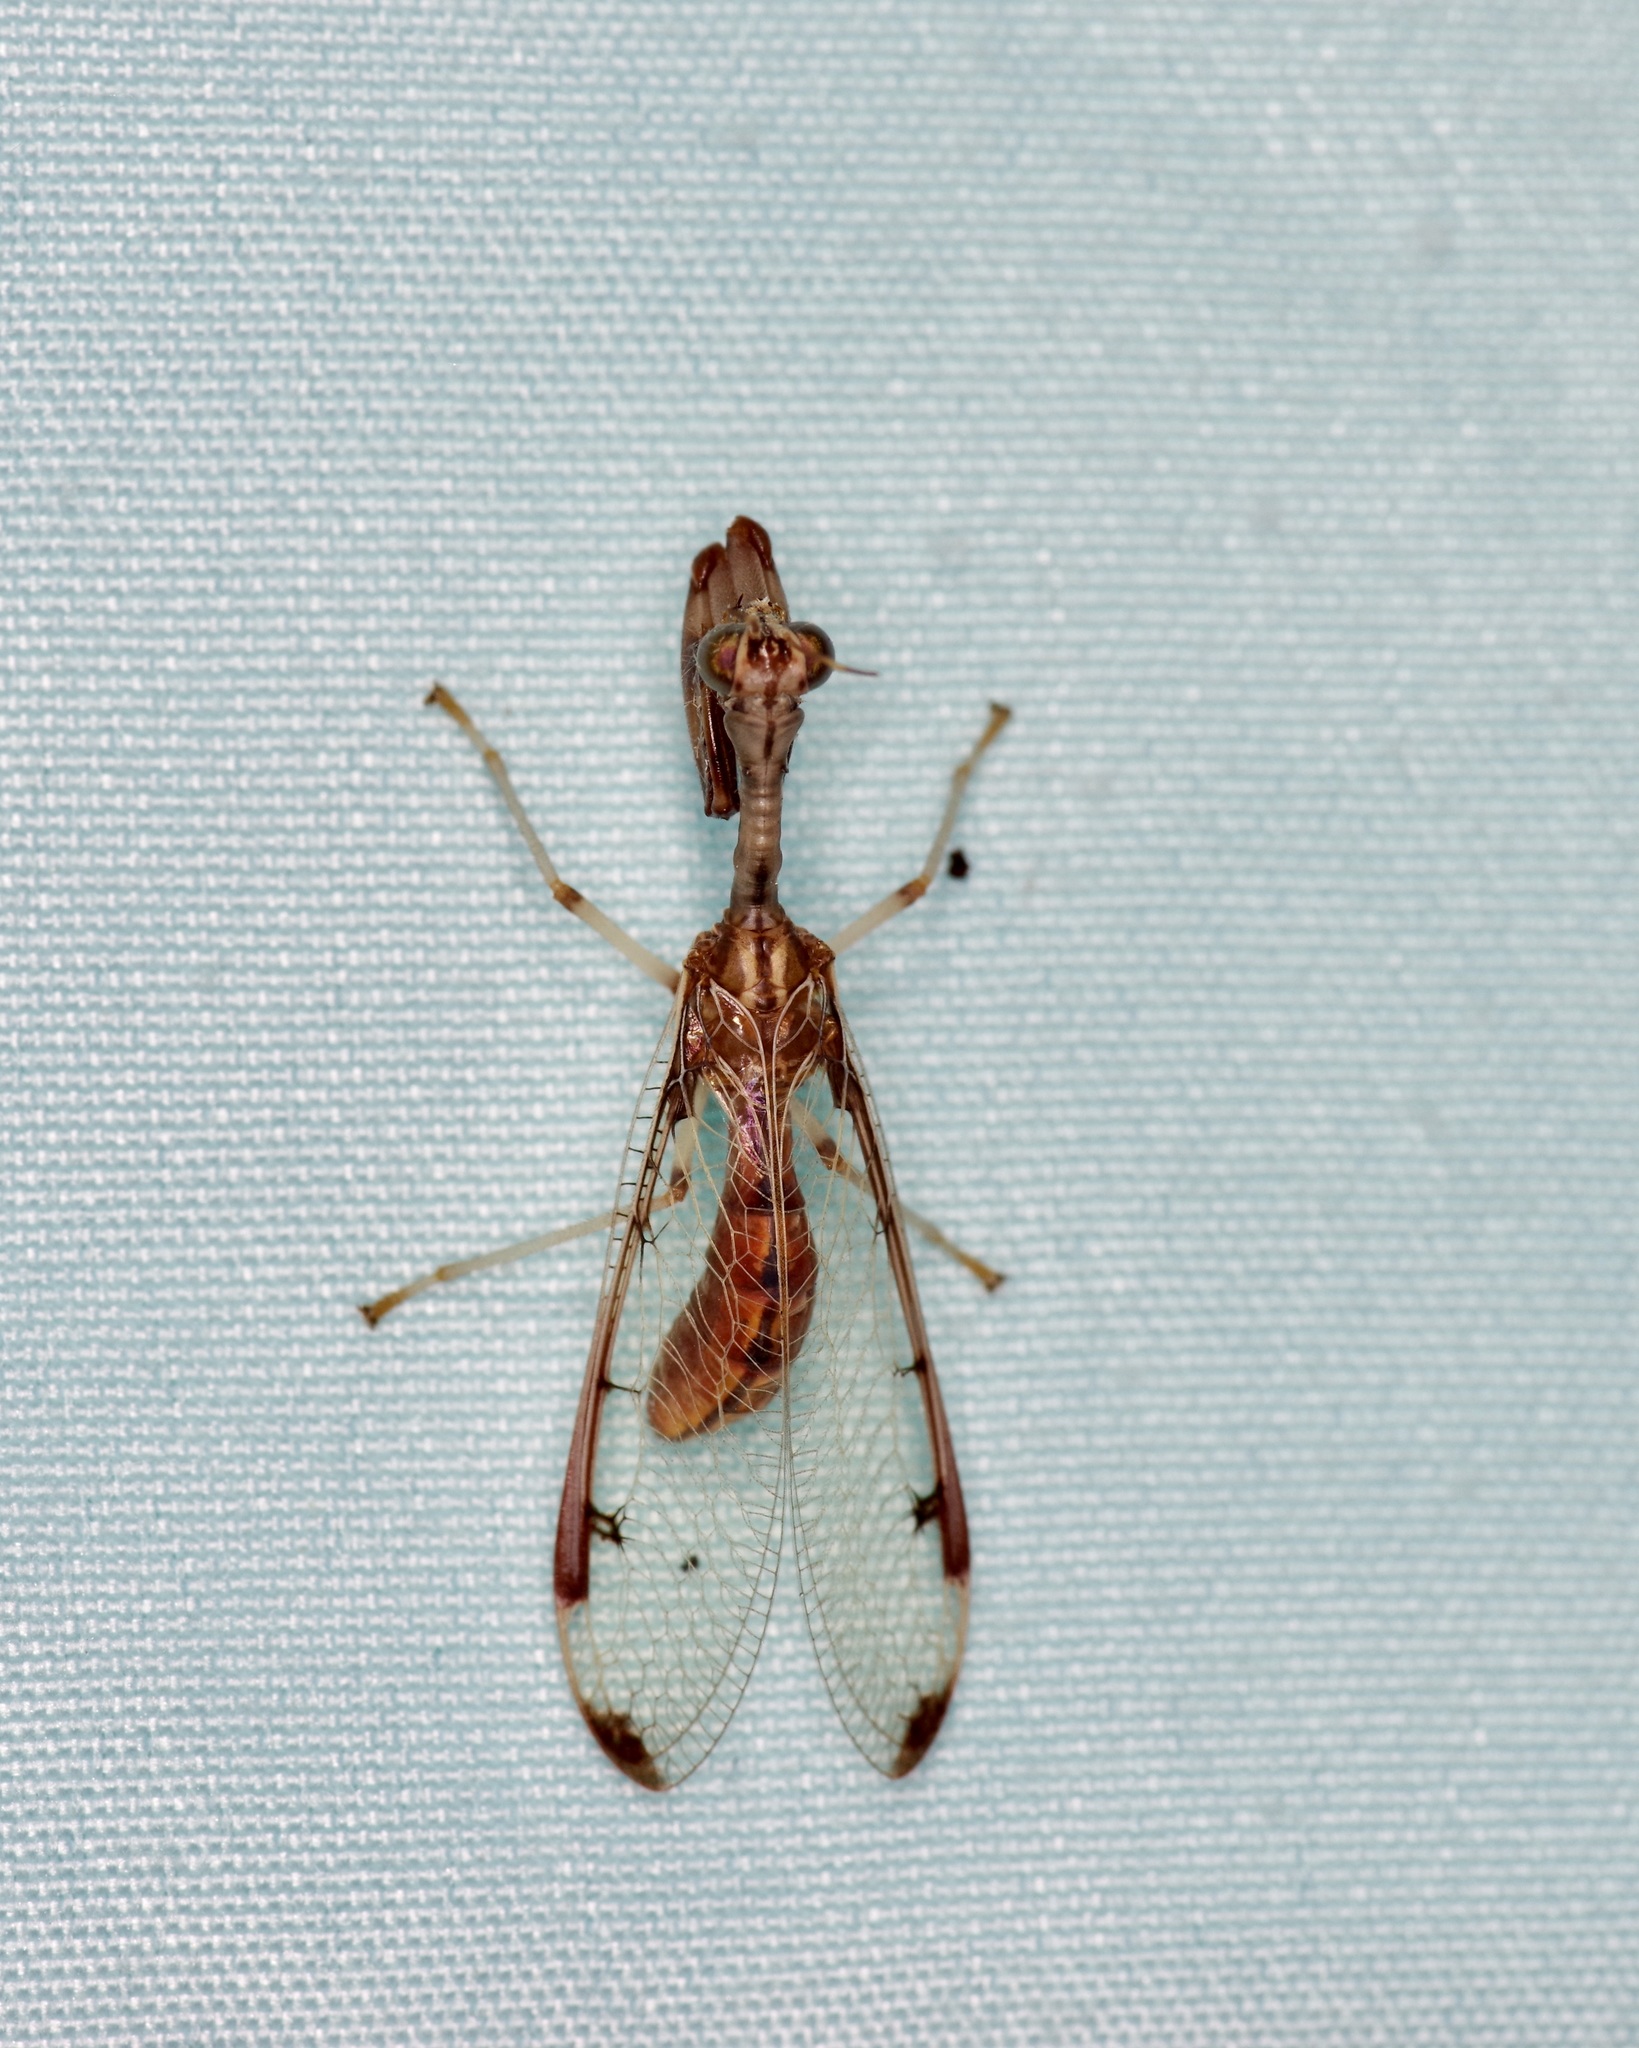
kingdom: Animalia
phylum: Arthropoda
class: Insecta
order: Neuroptera
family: Mantispidae
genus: Dicromantispa
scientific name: Dicromantispa interrupta
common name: Four-spotted mantidfly
